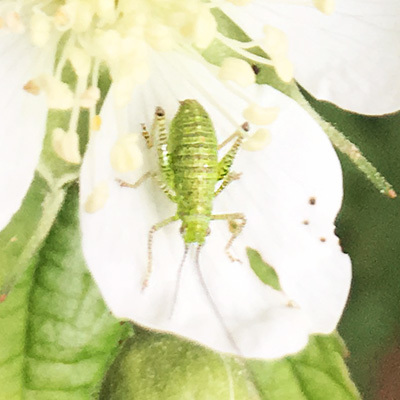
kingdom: Animalia
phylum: Arthropoda
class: Insecta
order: Orthoptera
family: Tettigoniidae
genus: Leptophyes
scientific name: Leptophyes punctatissima
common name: Speckled bush-cricket
